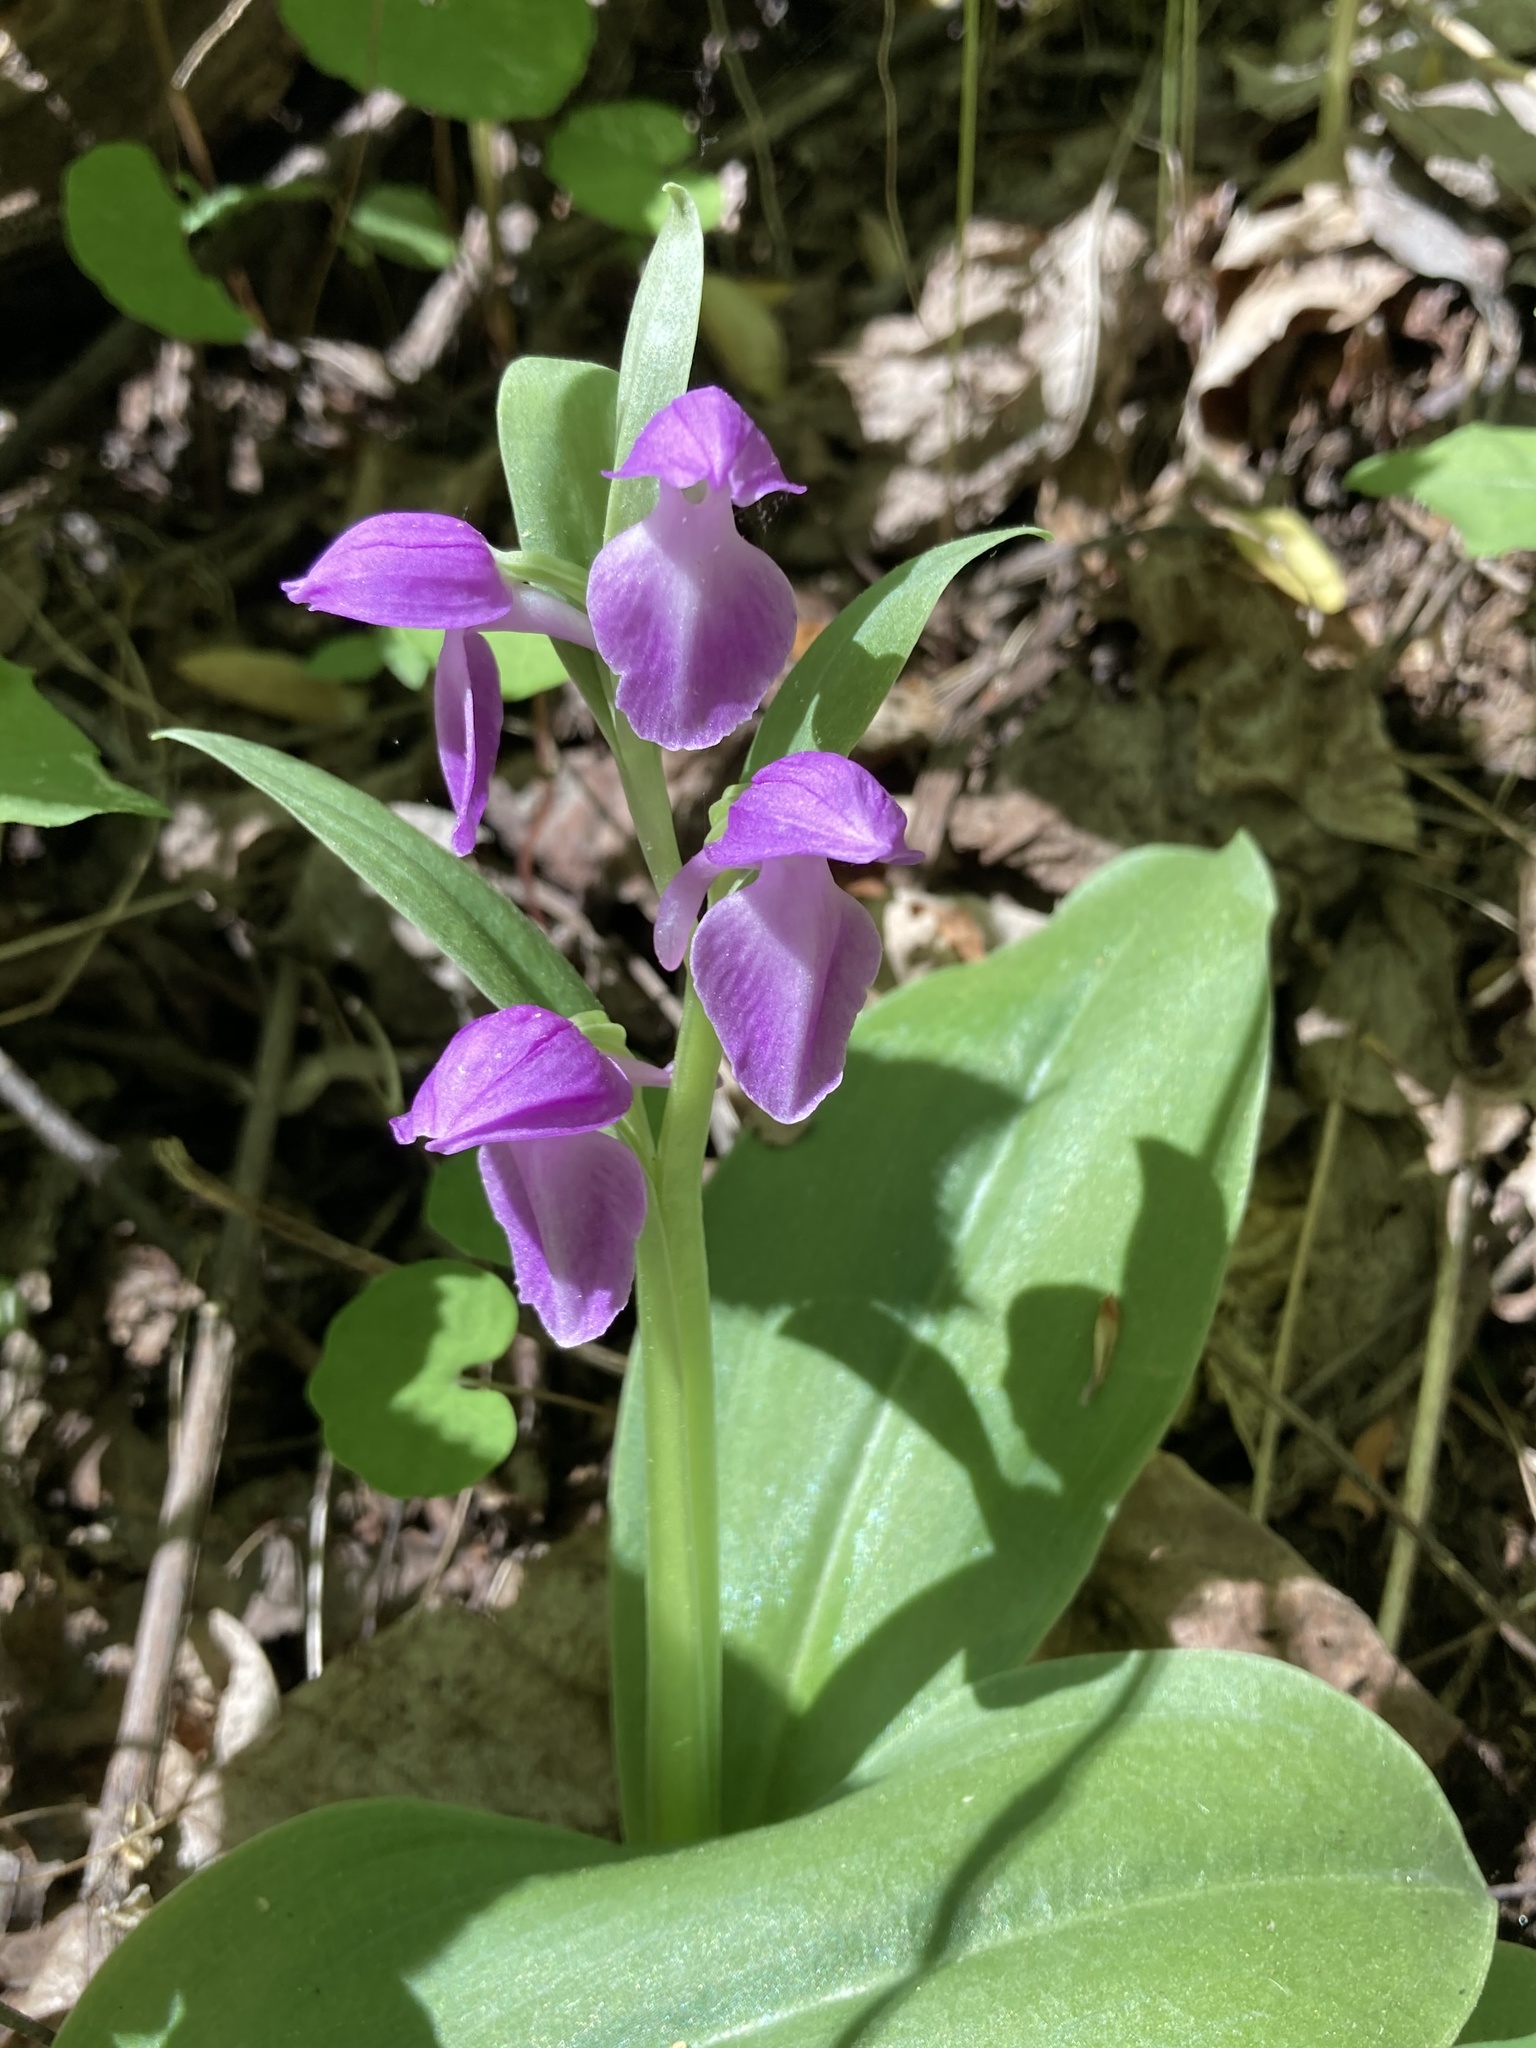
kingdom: Plantae
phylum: Tracheophyta
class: Liliopsida
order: Asparagales
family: Orchidaceae
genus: Galearis
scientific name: Galearis spectabilis
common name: Purple-hooded orchis
